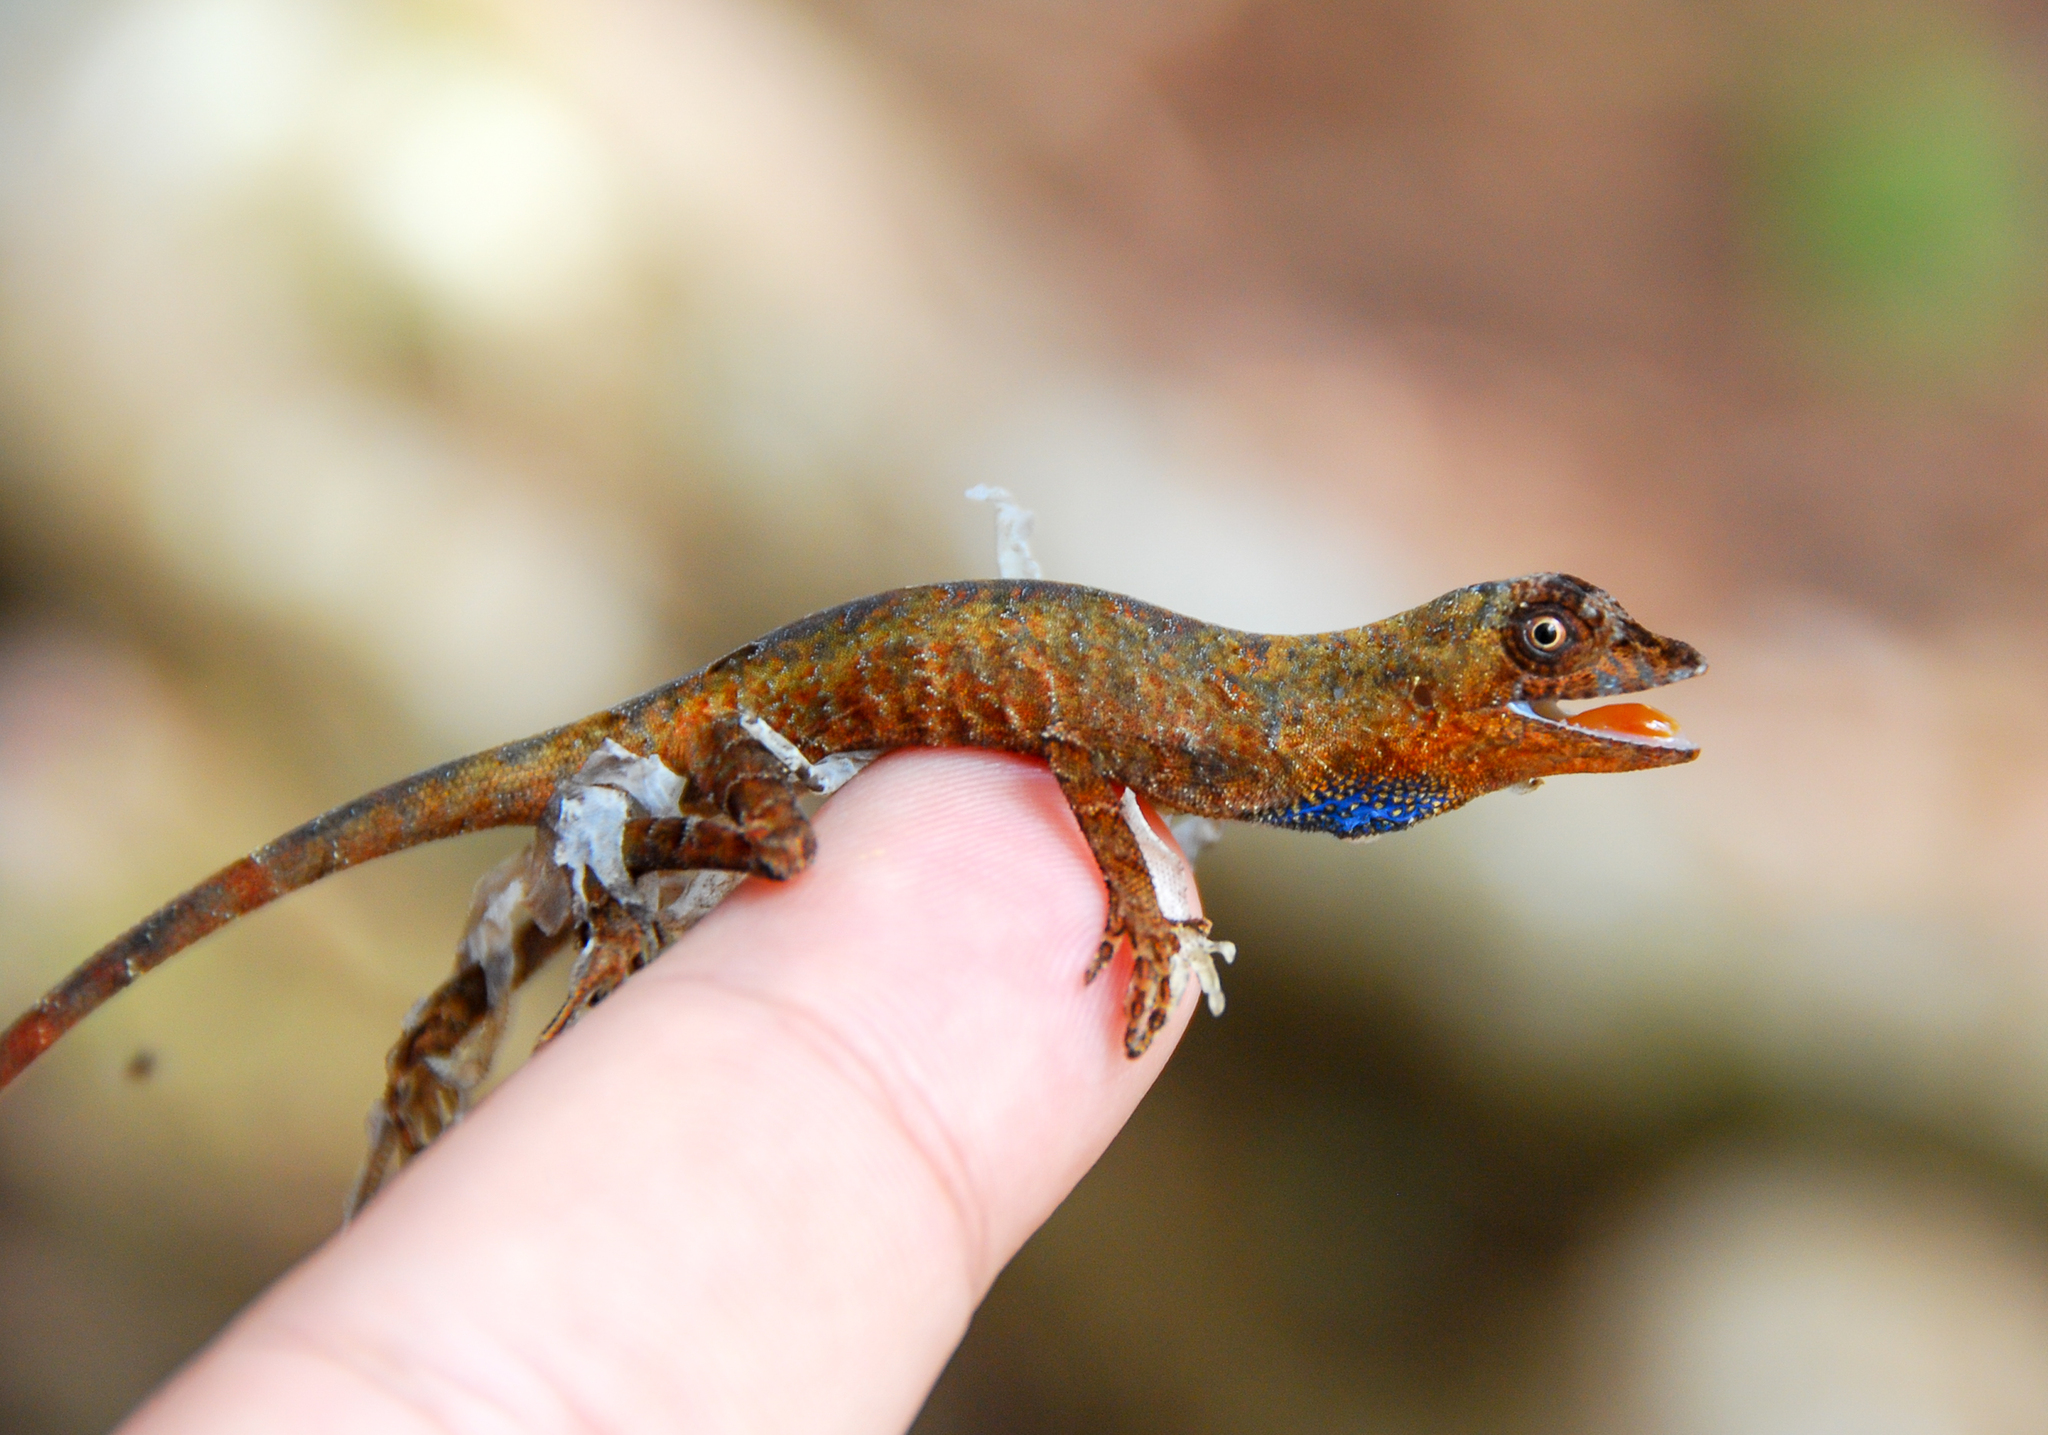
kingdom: Animalia
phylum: Chordata
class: Squamata
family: Dactyloidae
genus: Anolis
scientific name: Anolis tandai
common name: Tandai’s anole
